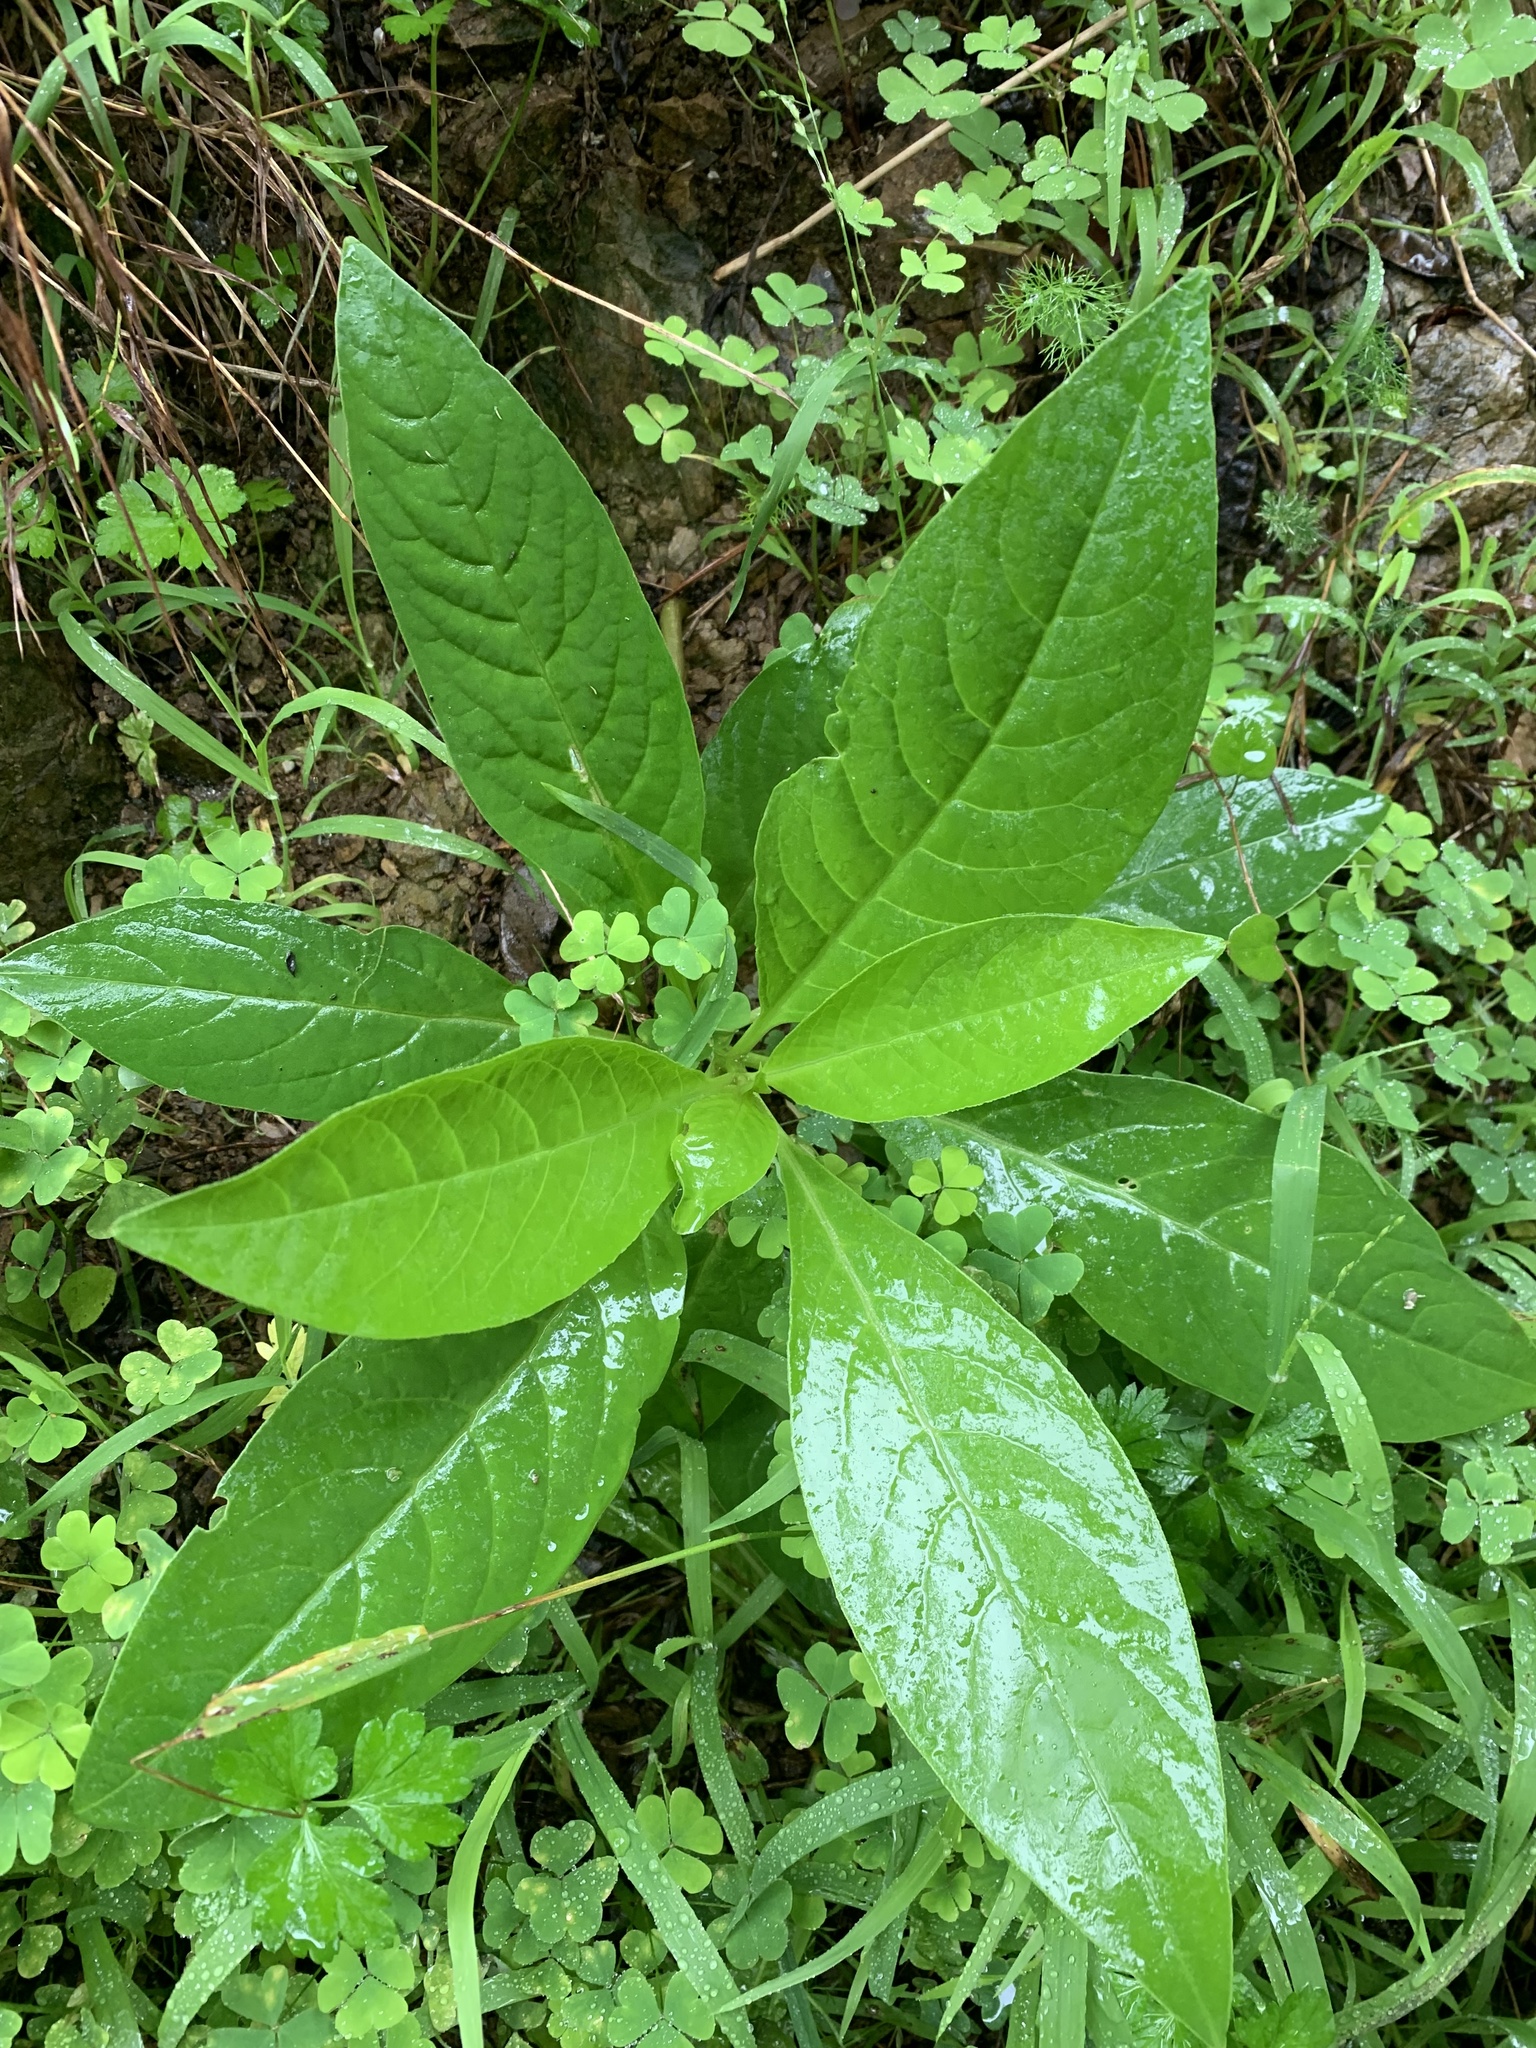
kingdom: Plantae
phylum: Tracheophyta
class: Magnoliopsida
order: Caryophyllales
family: Phytolaccaceae
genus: Phytolacca
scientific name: Phytolacca icosandra
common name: Button pokeweed
